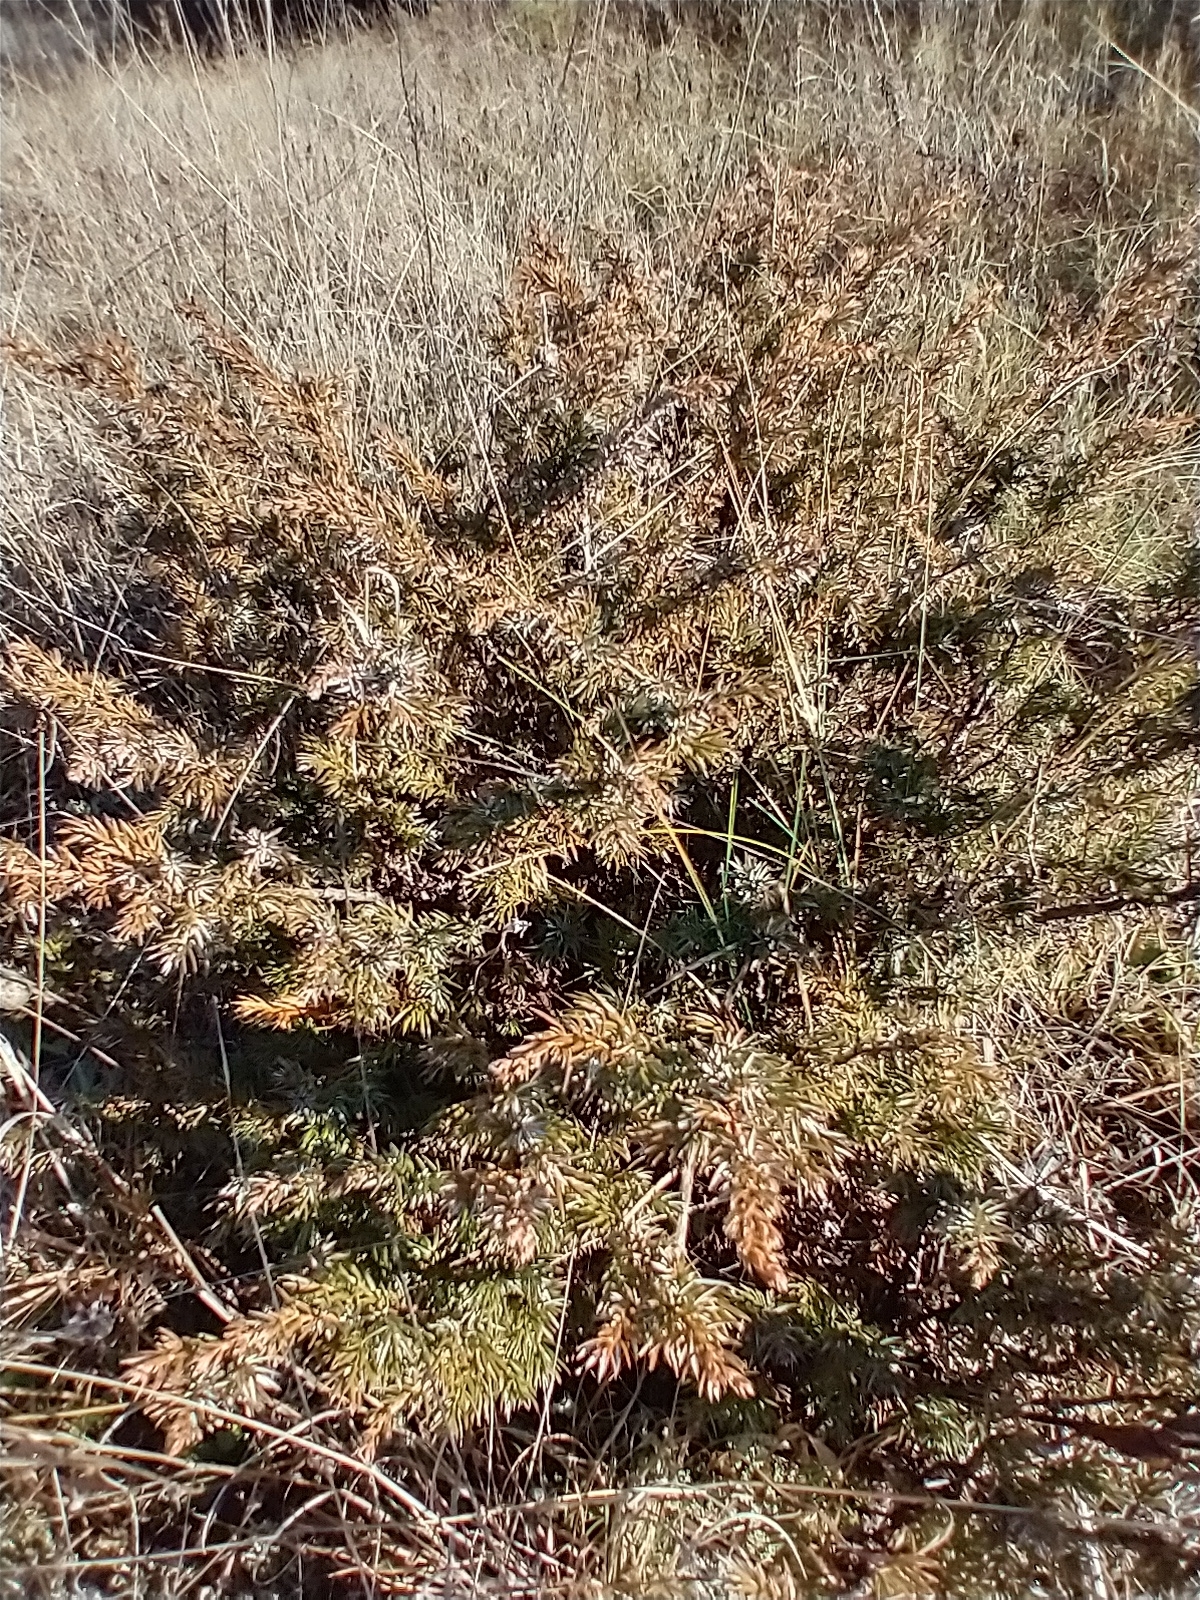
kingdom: Plantae
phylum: Tracheophyta
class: Pinopsida
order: Pinales
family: Cupressaceae
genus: Juniperus
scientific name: Juniperus communis
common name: Common juniper
